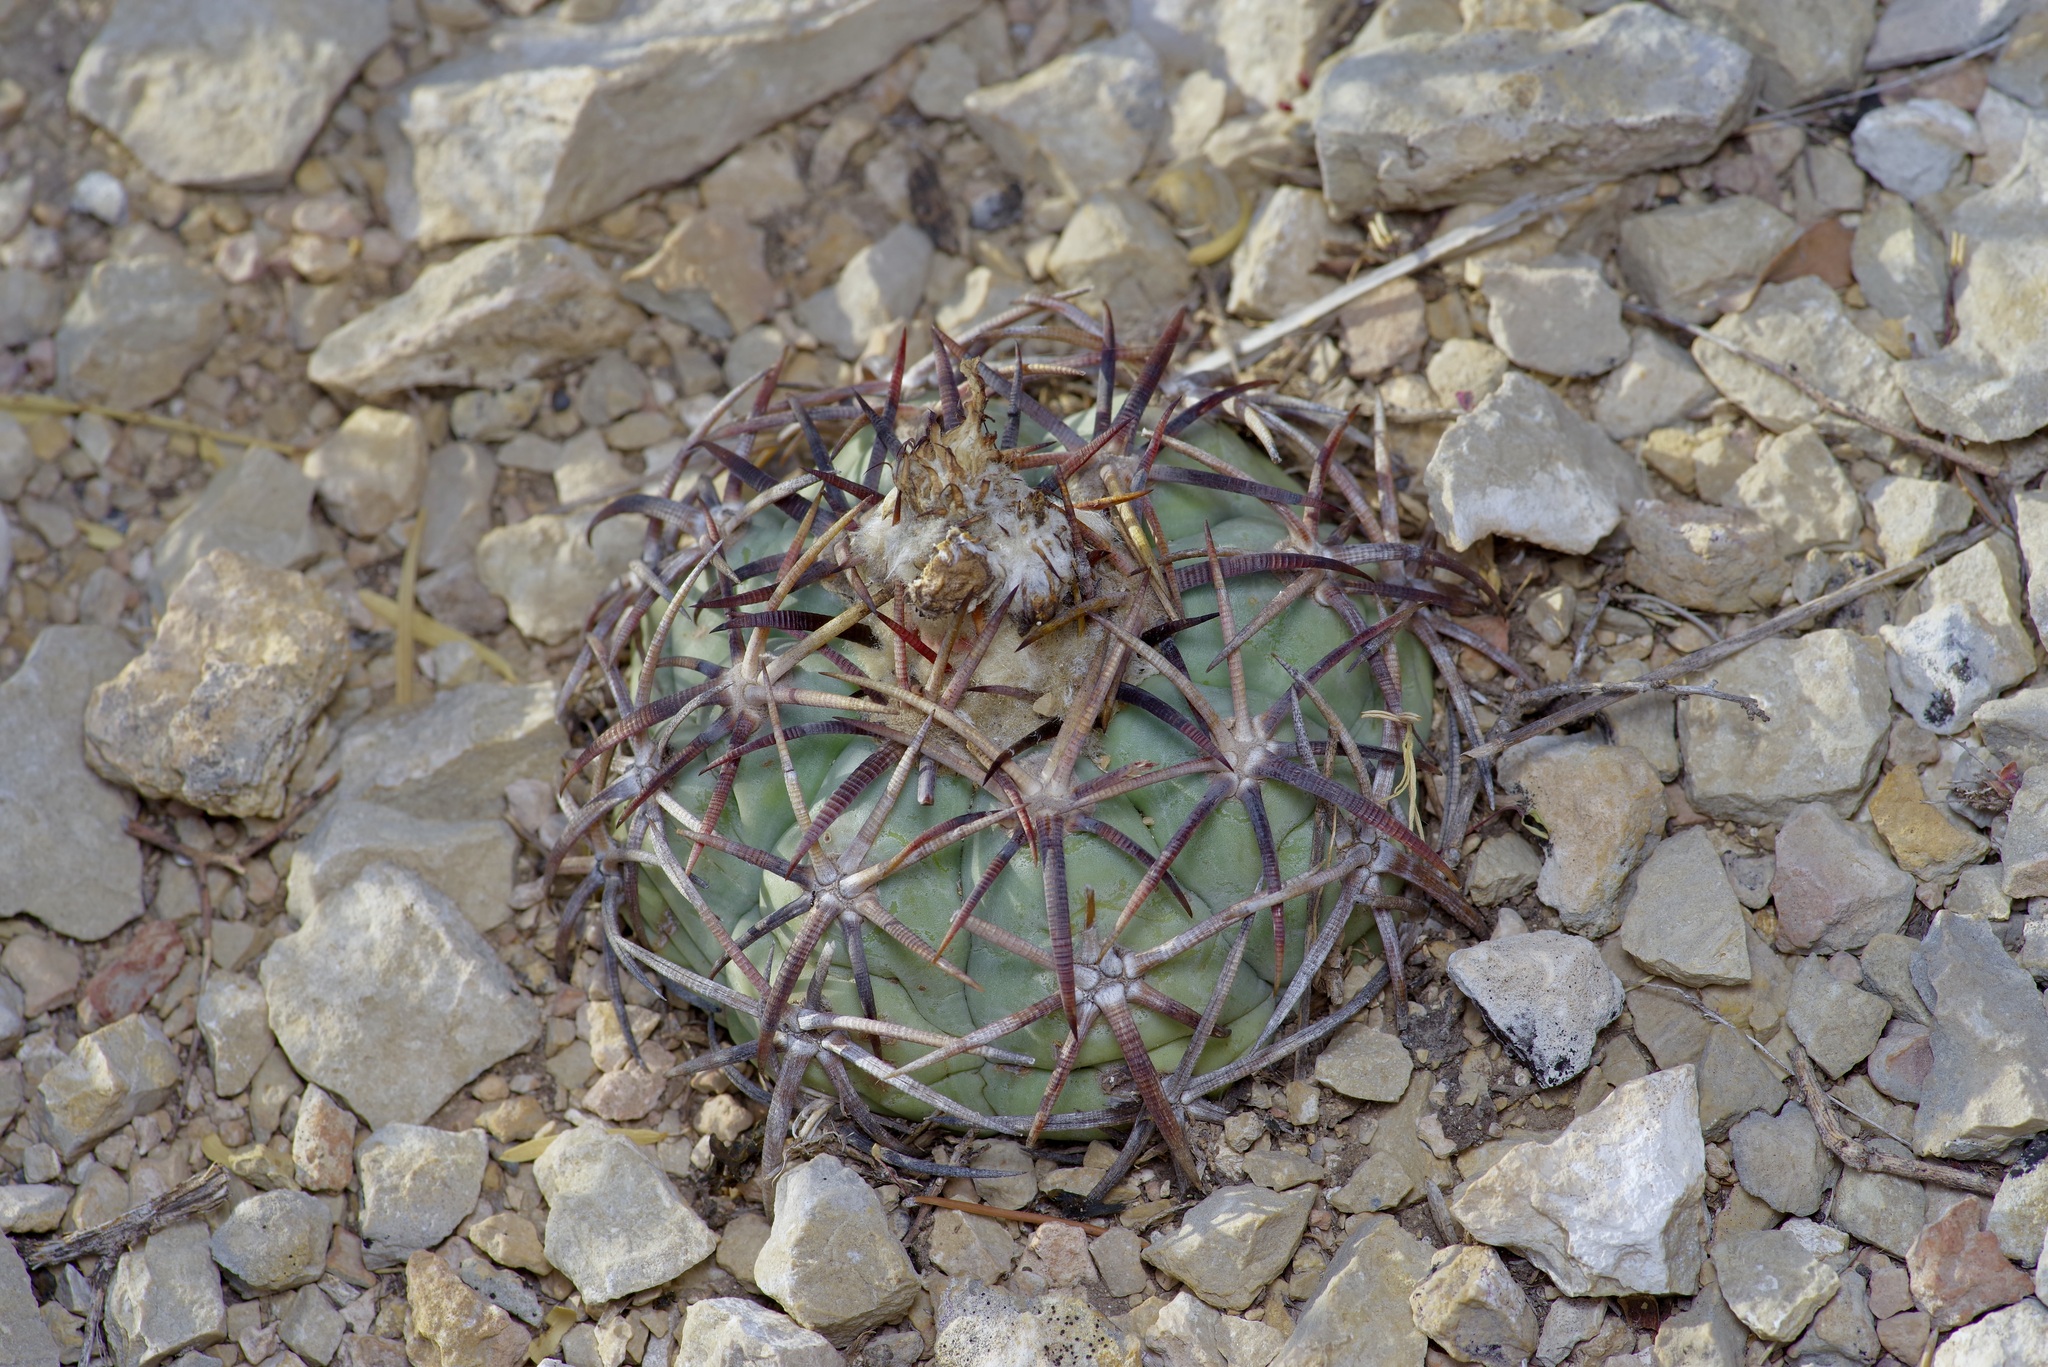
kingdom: Plantae
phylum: Tracheophyta
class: Magnoliopsida
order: Caryophyllales
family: Cactaceae
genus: Echinocactus
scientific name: Echinocactus horizonthalonius
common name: Devilshead
